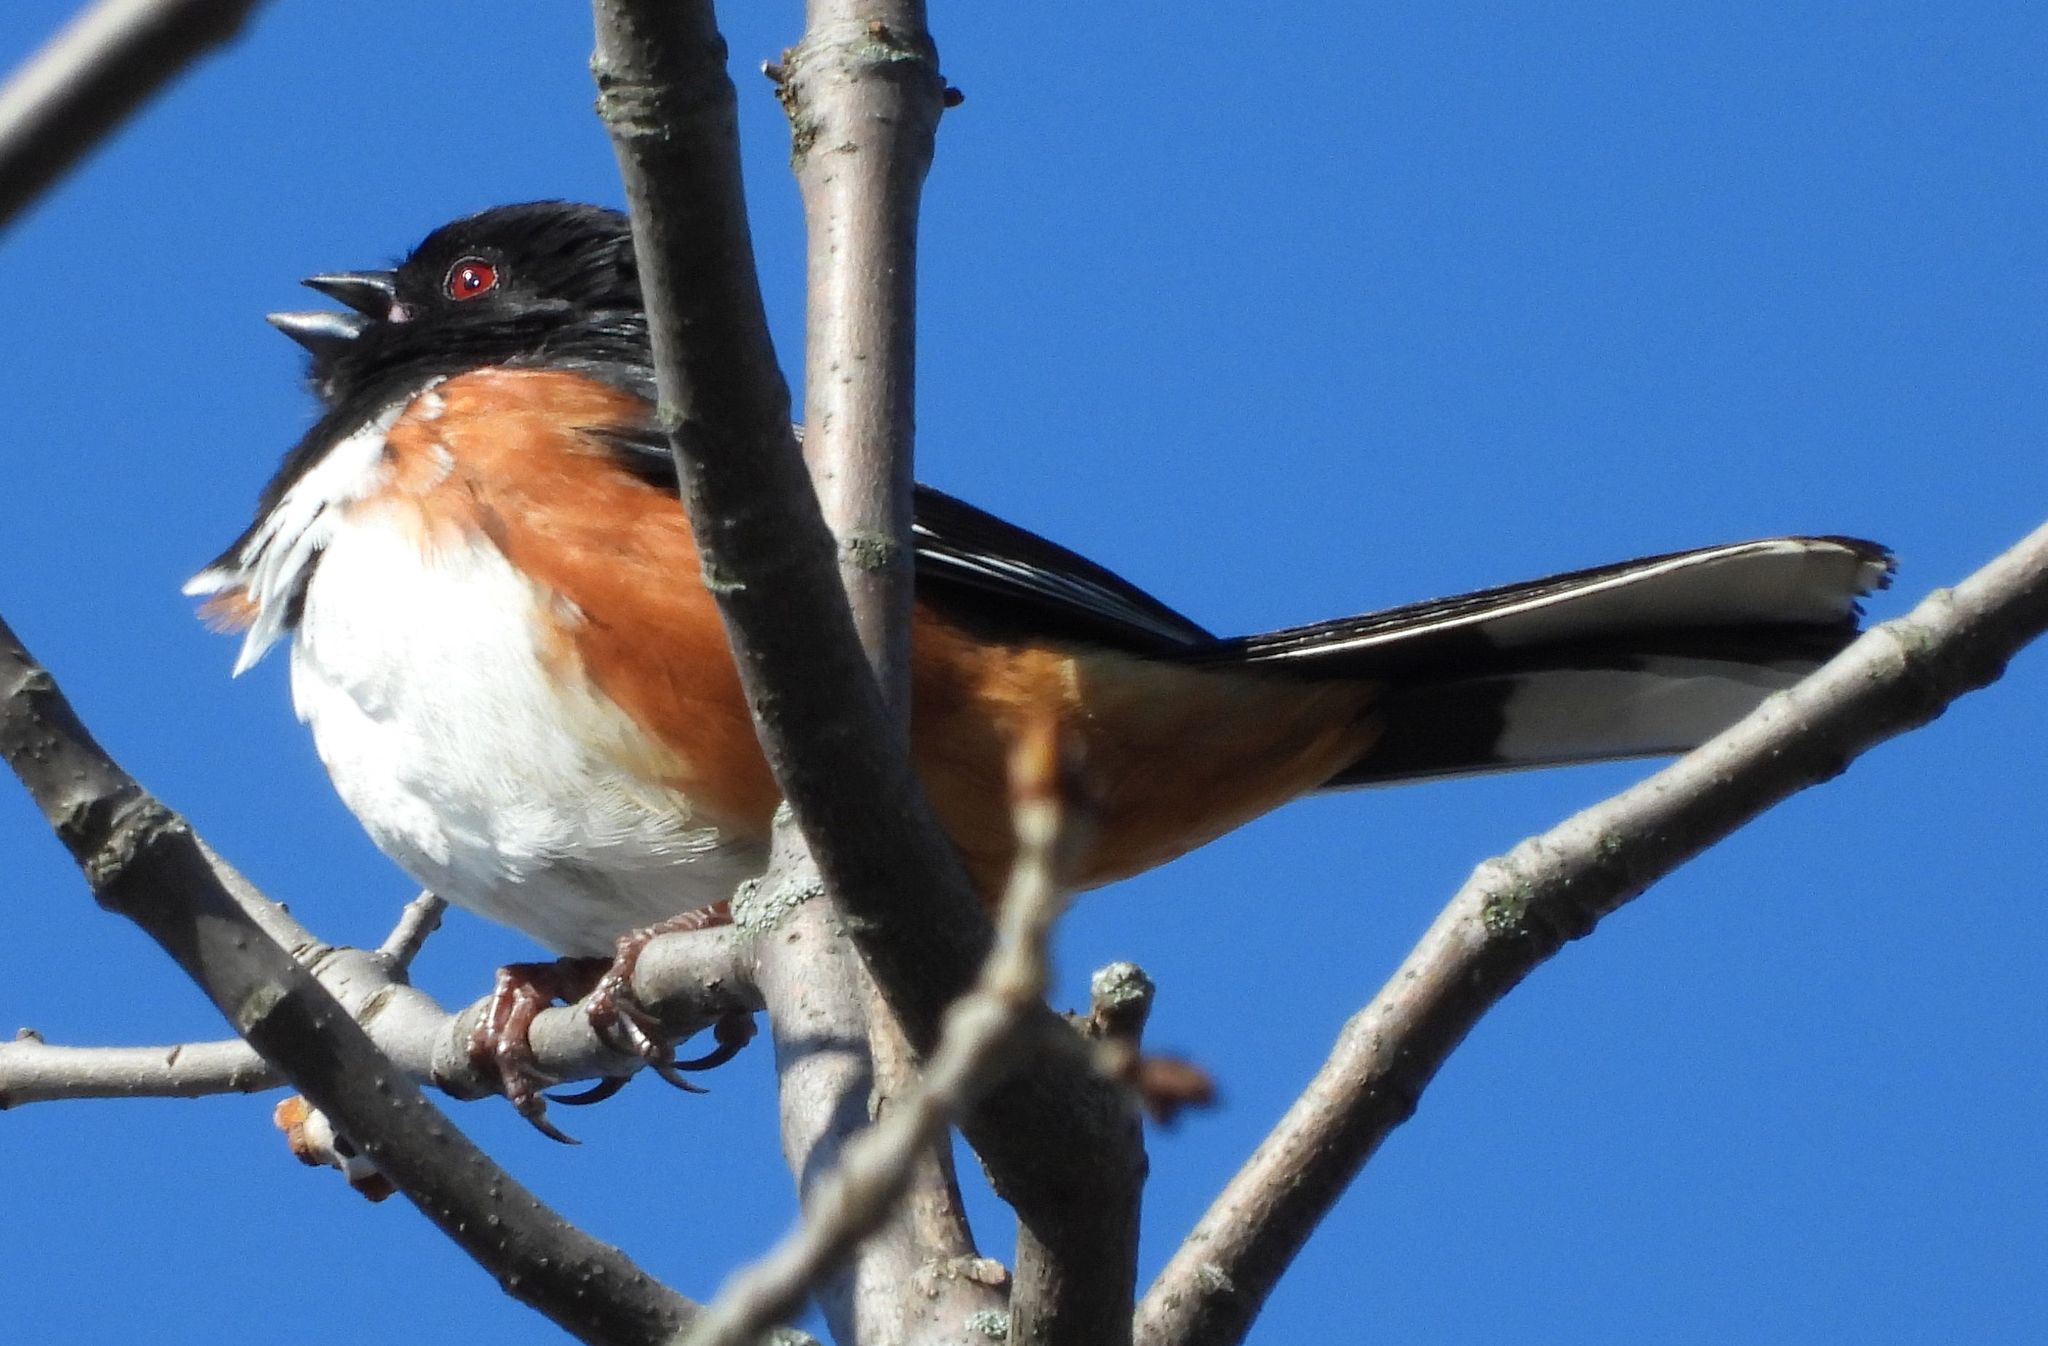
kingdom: Animalia
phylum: Chordata
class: Aves
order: Passeriformes
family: Passerellidae
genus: Pipilo
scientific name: Pipilo erythrophthalmus
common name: Eastern towhee
